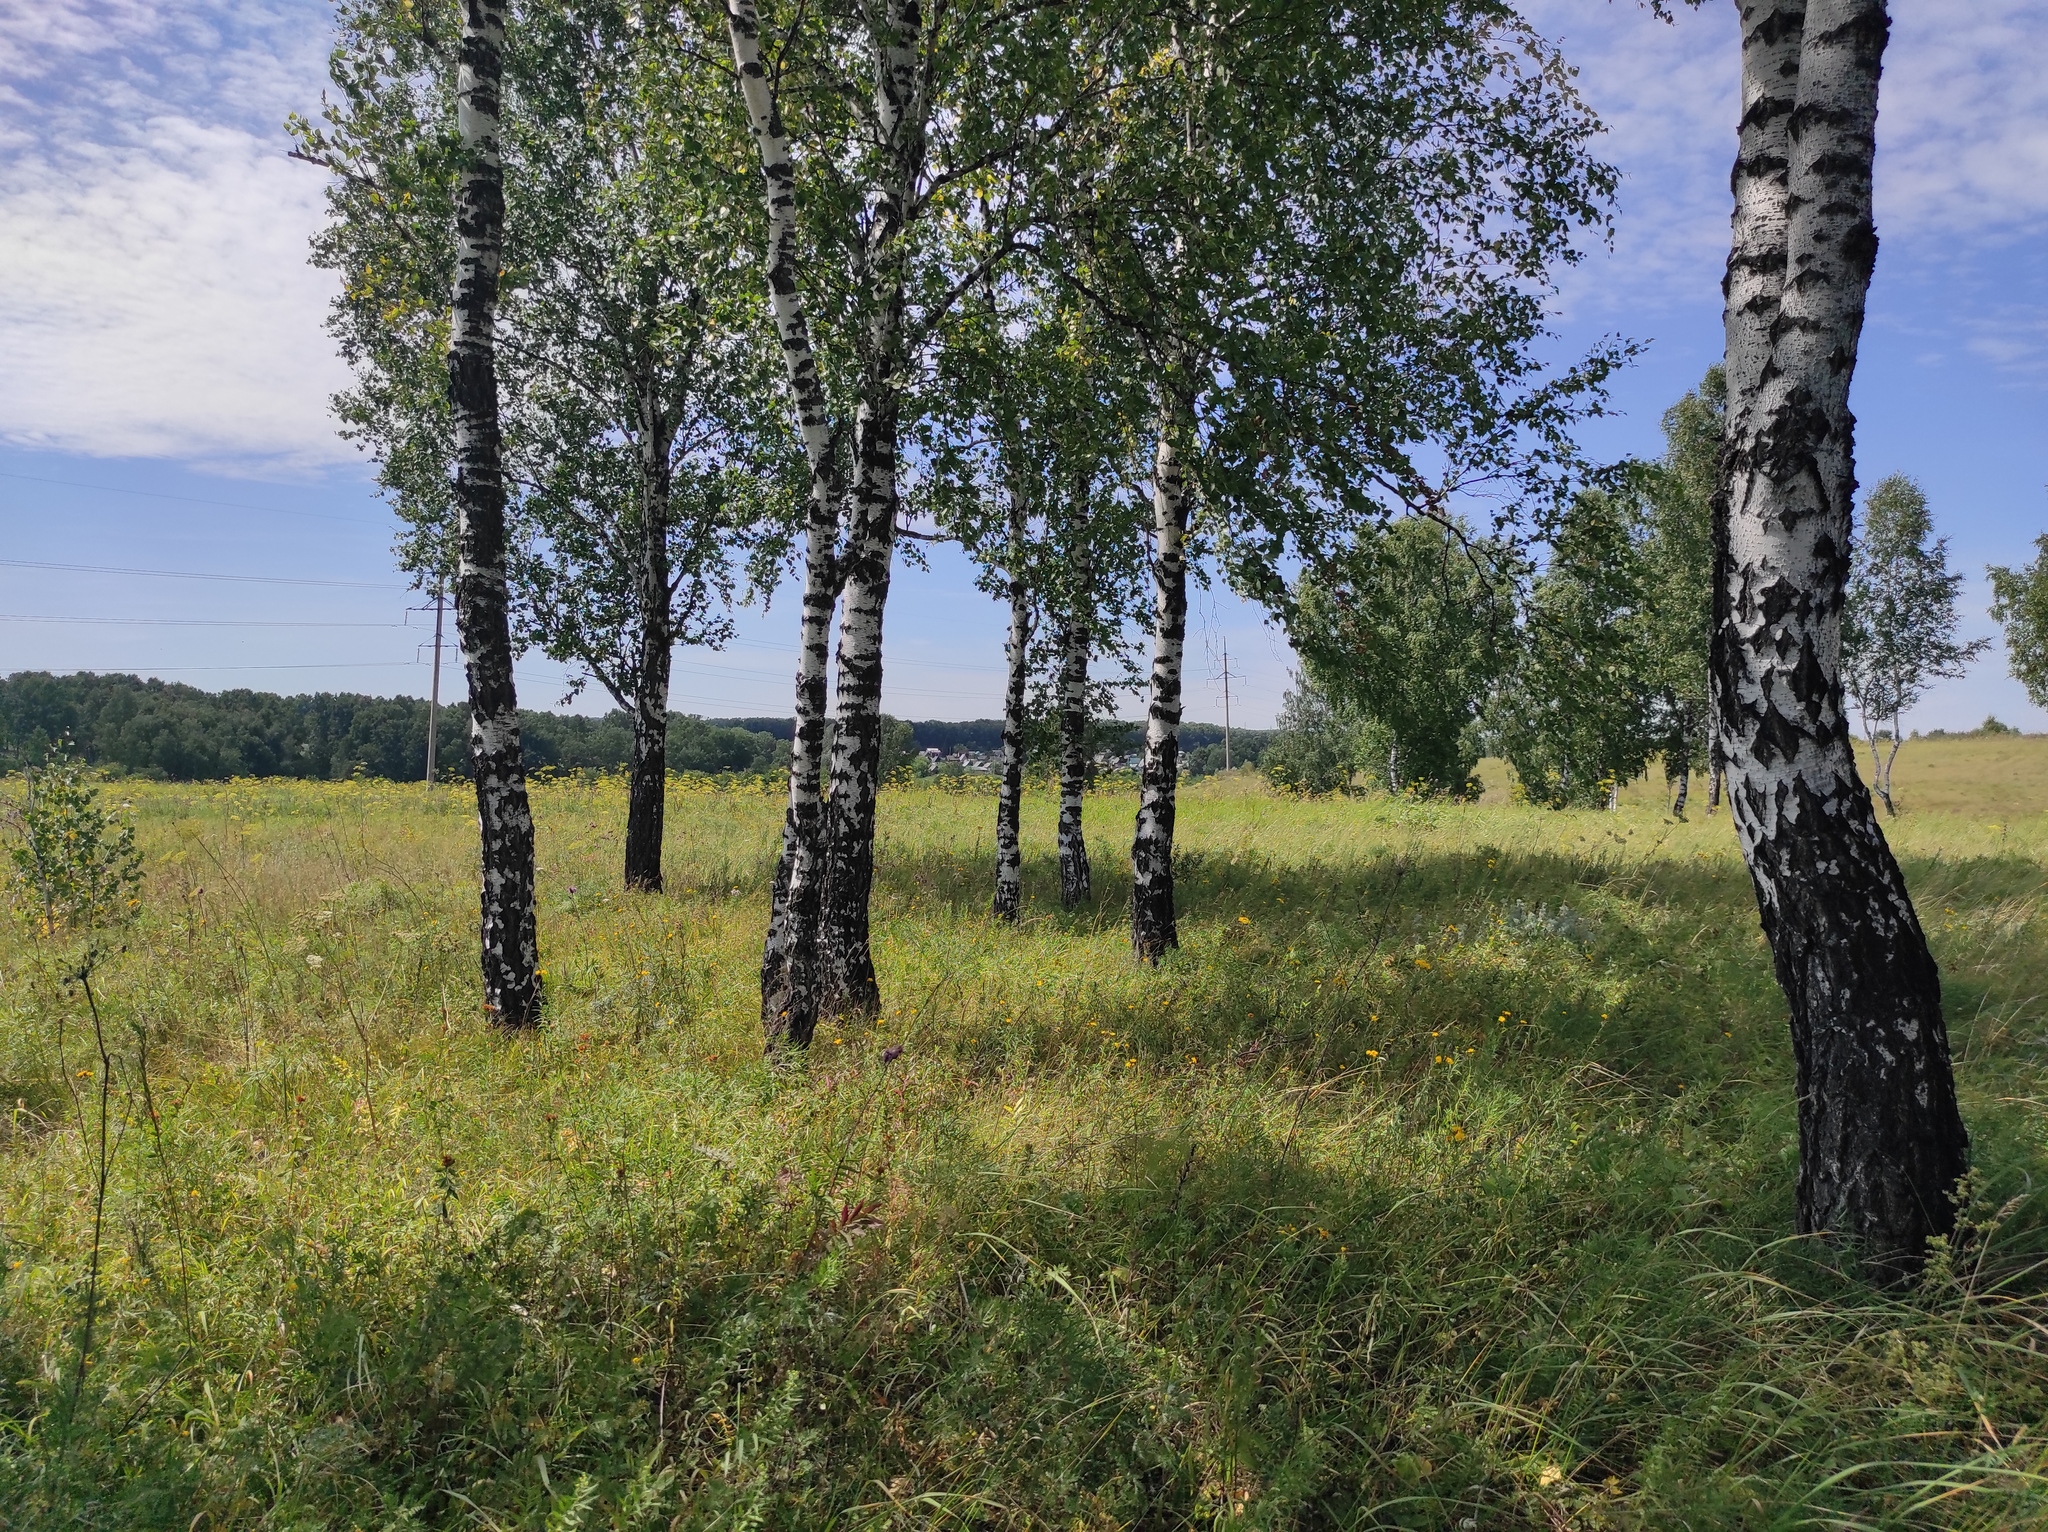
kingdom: Plantae
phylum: Tracheophyta
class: Magnoliopsida
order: Fagales
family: Betulaceae
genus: Betula
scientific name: Betula pendula
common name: Silver birch
